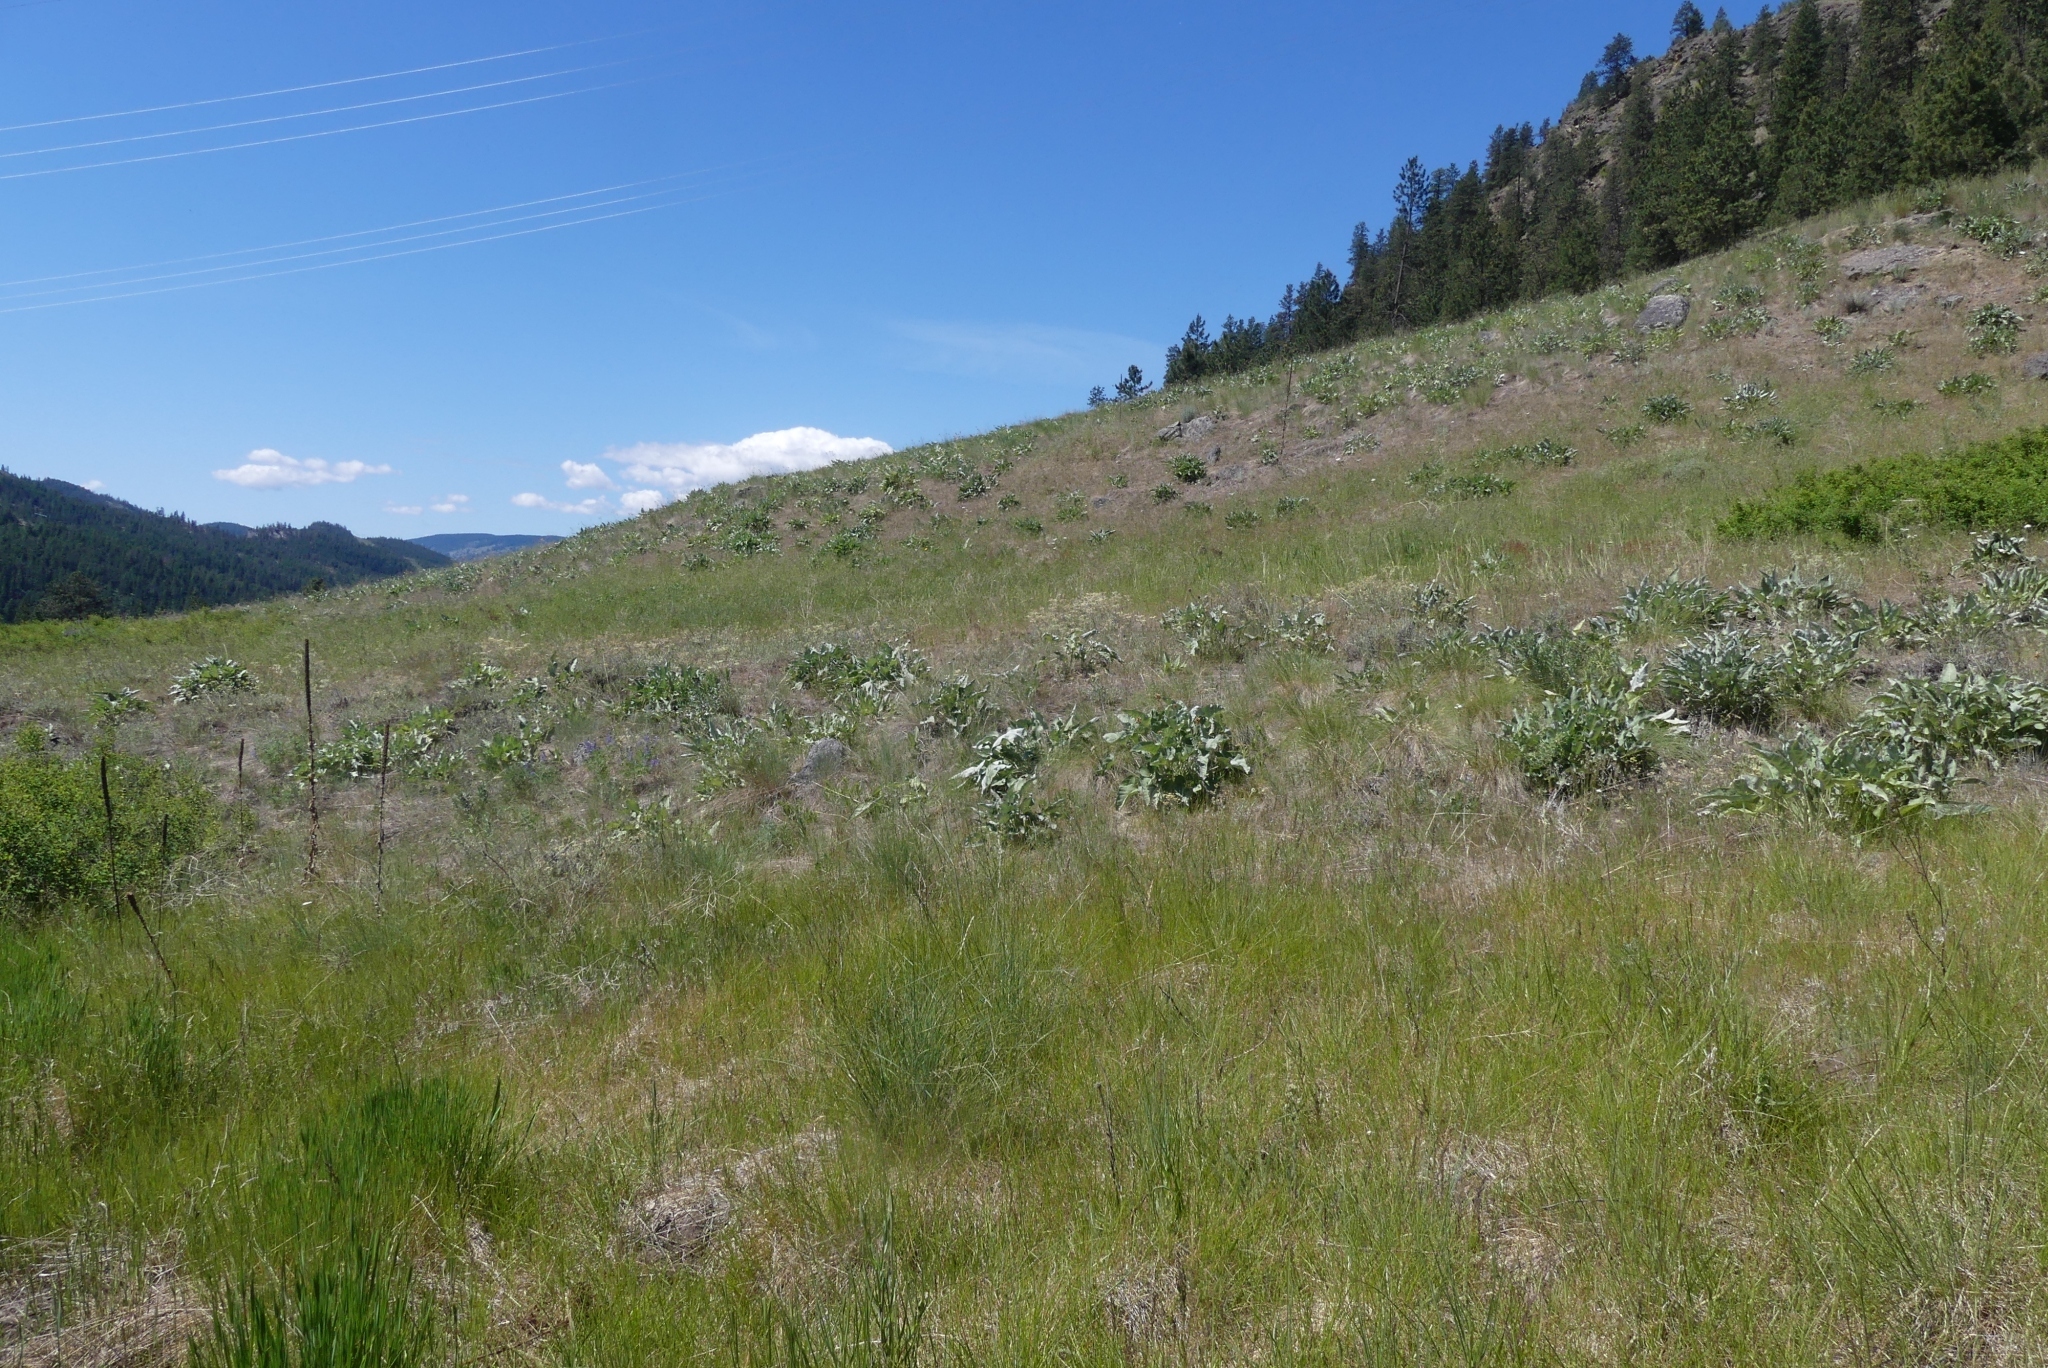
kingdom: Plantae
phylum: Tracheophyta
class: Magnoliopsida
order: Asterales
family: Asteraceae
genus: Wyethia
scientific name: Wyethia sagittata
